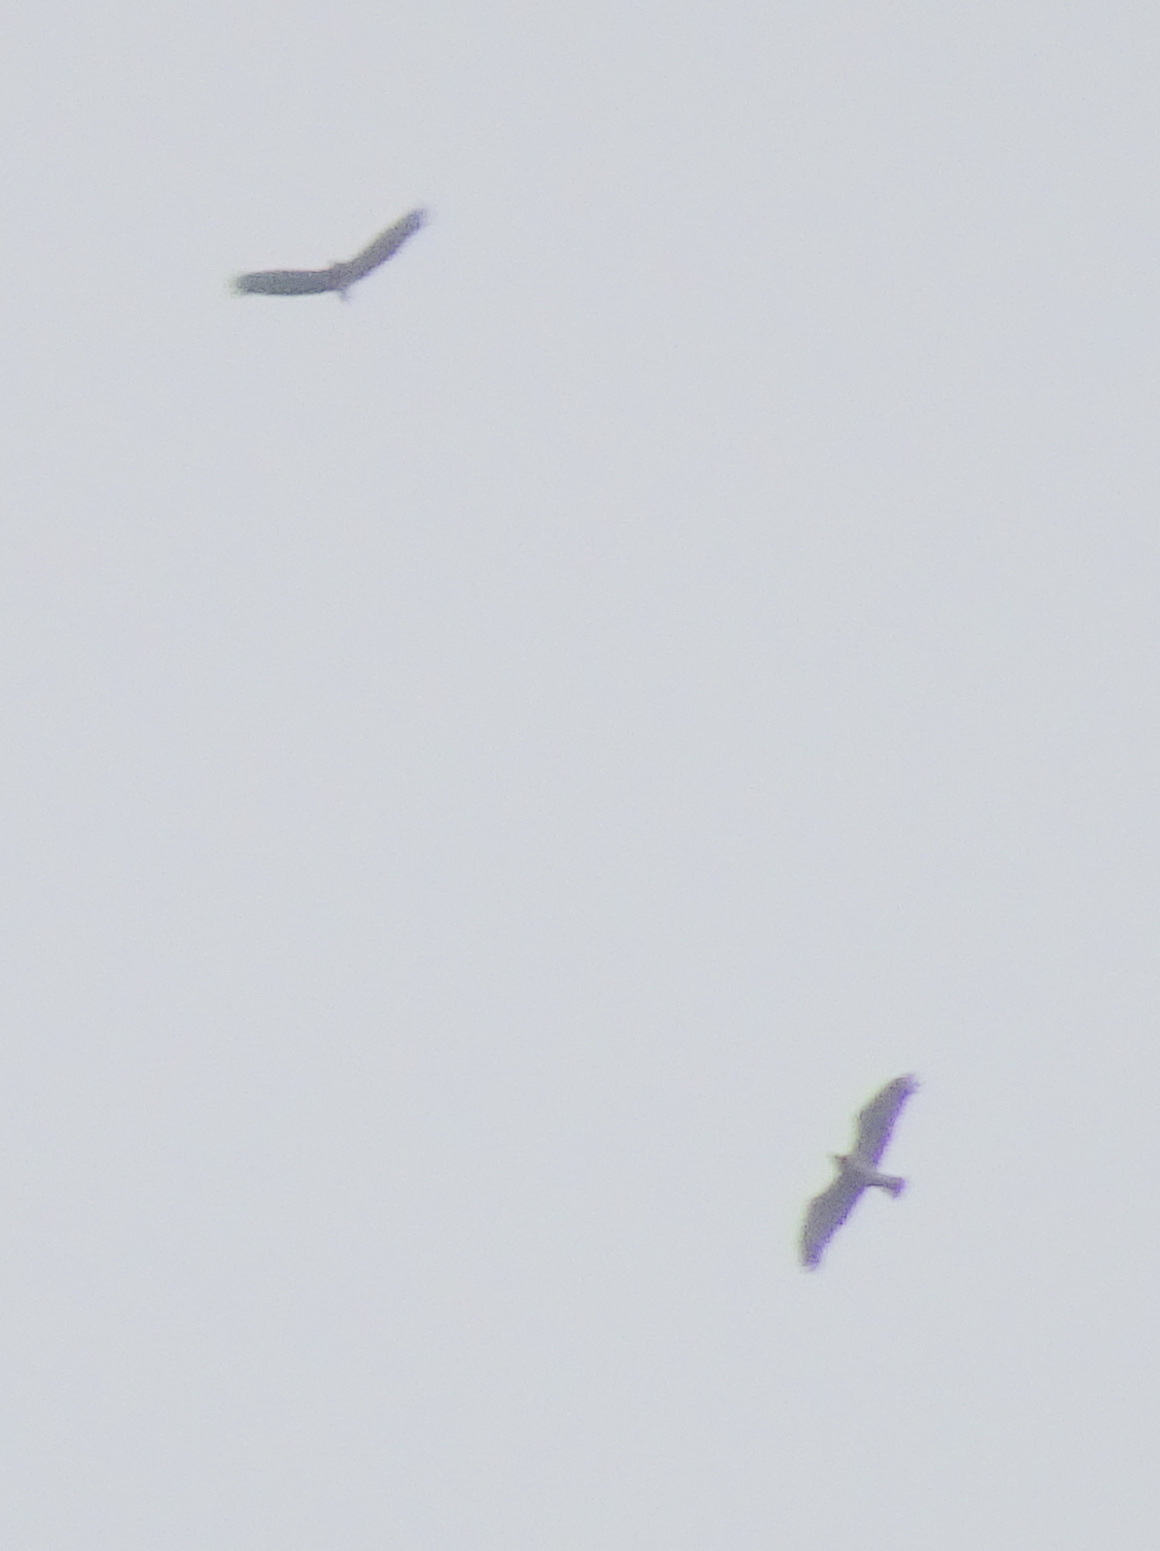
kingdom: Animalia
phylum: Chordata
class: Aves
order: Accipitriformes
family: Accipitridae
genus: Circaetus
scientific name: Circaetus gallicus
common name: Short-toed snake eagle
